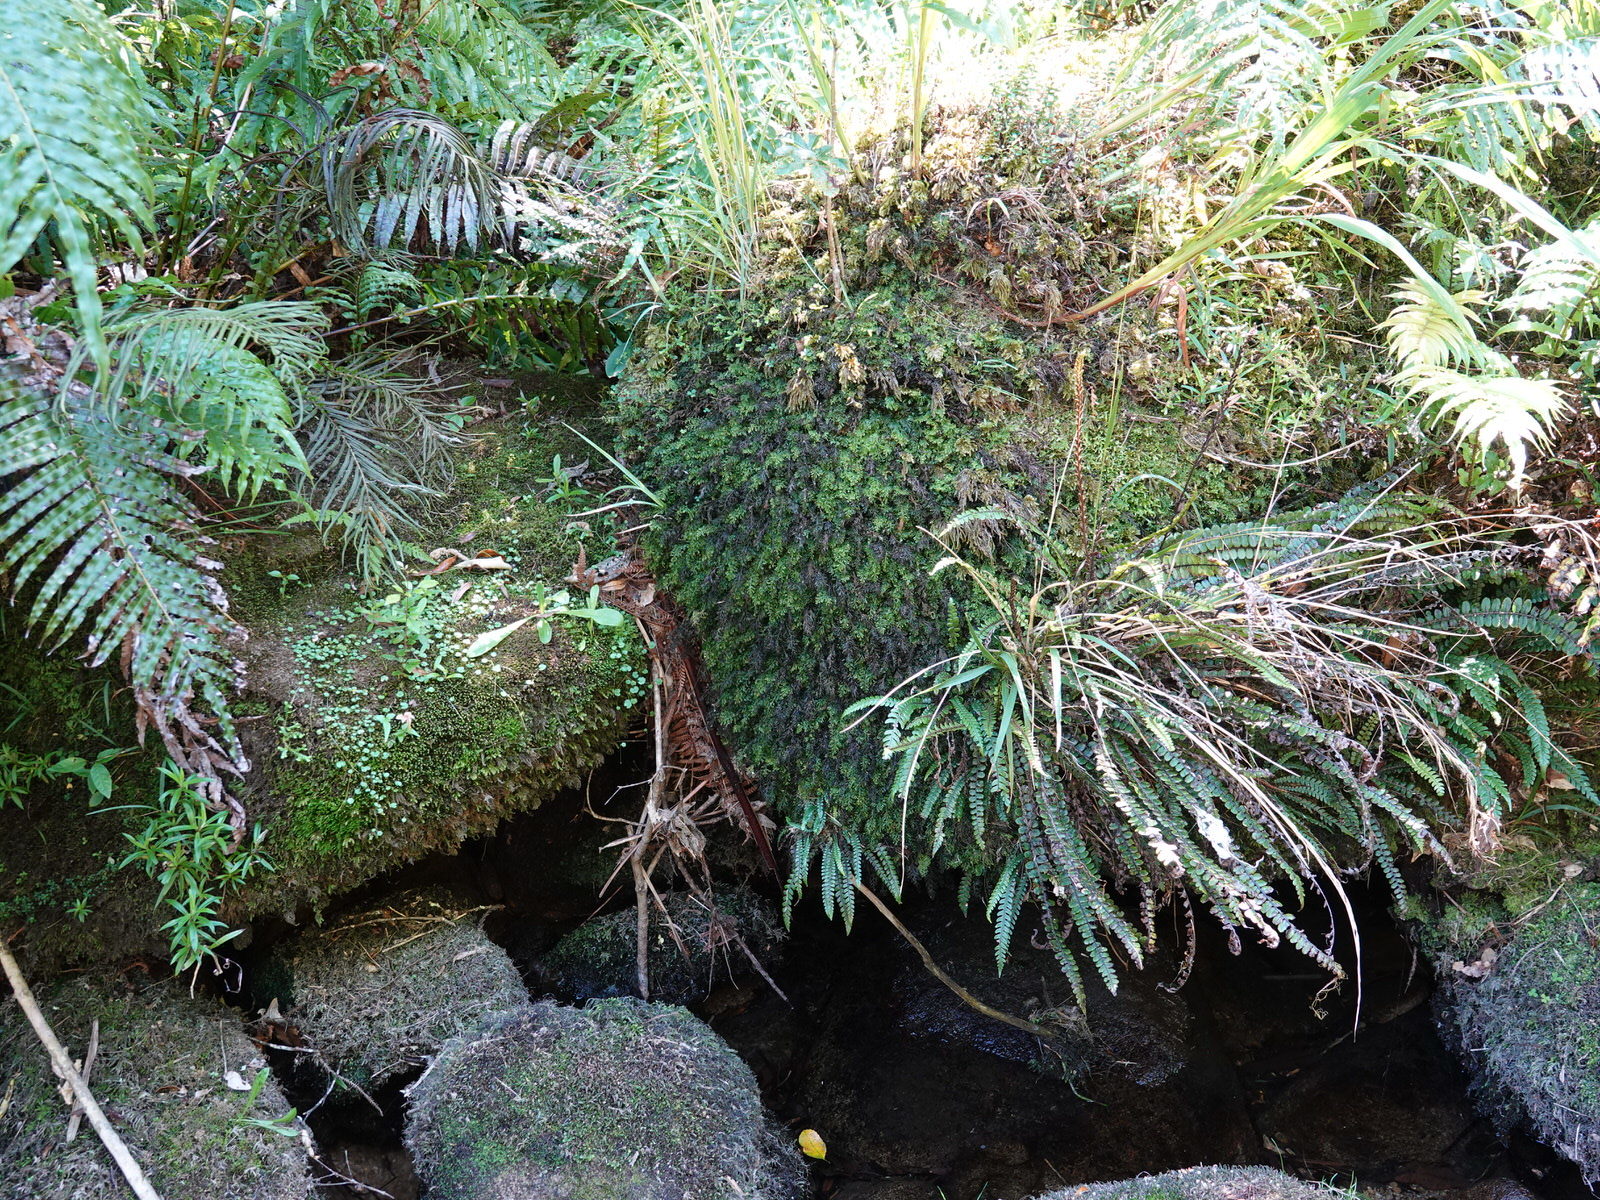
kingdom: Plantae
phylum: Tracheophyta
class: Polypodiopsida
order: Hymenophyllales
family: Hymenophyllaceae
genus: Hymenophyllum
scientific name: Hymenophyllum australe
